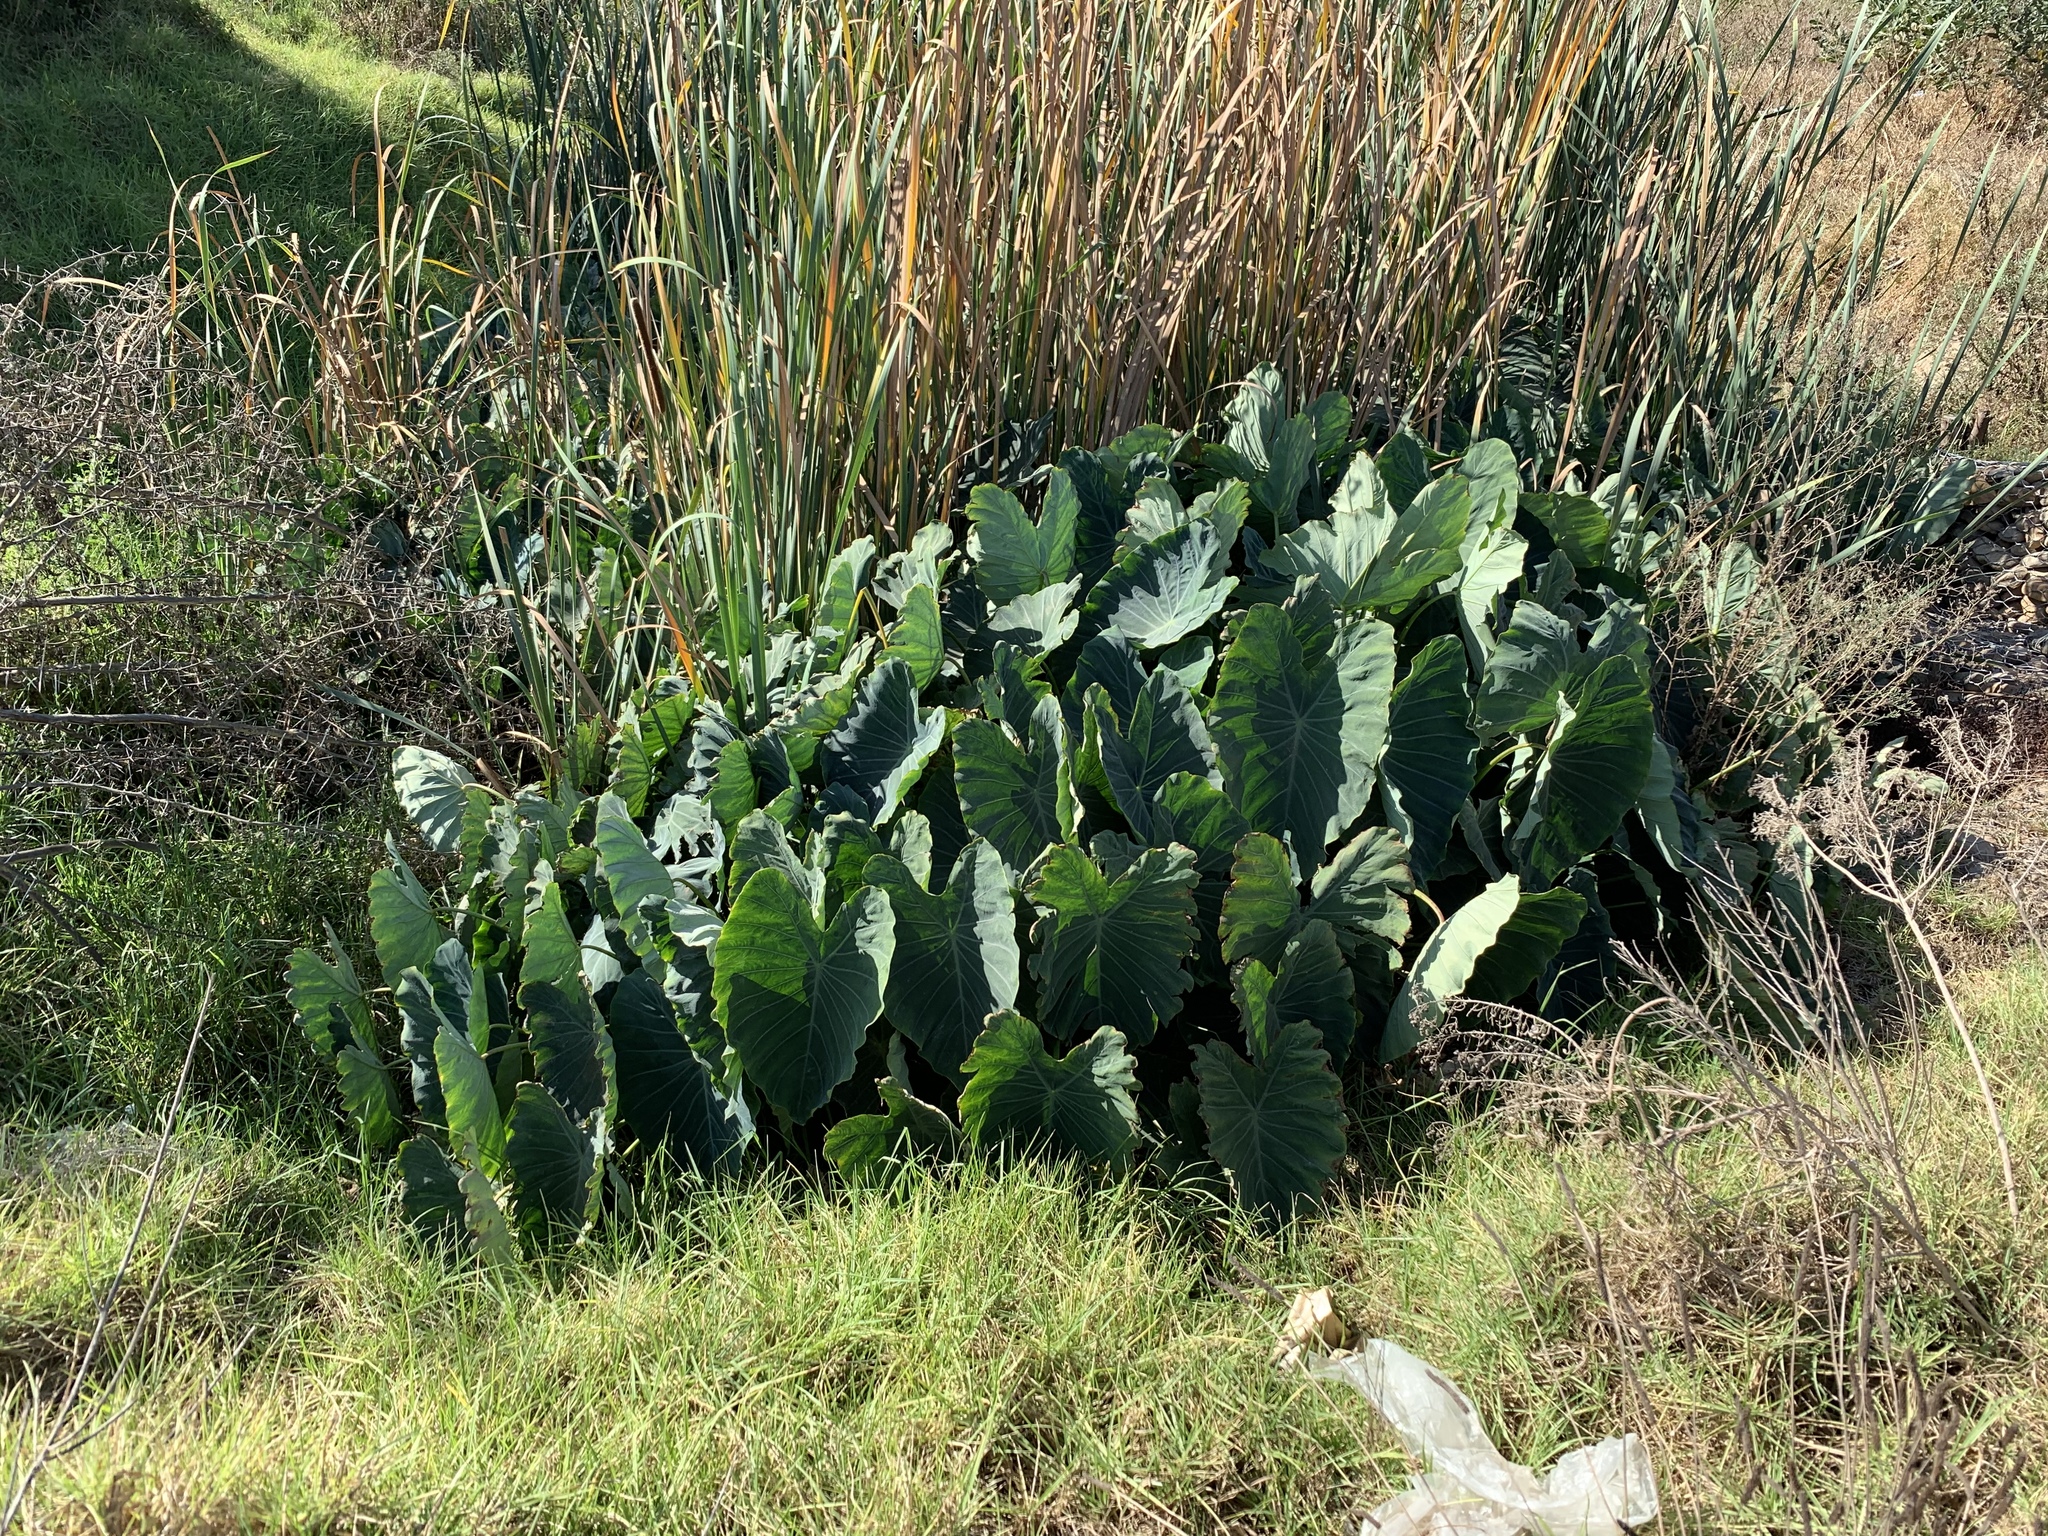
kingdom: Plantae
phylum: Tracheophyta
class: Liliopsida
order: Alismatales
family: Araceae
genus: Colocasia
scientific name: Colocasia esculenta
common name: Taro
